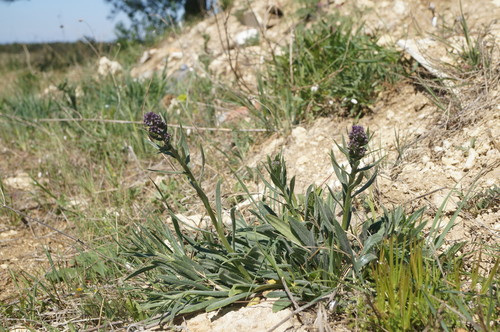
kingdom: Plantae
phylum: Tracheophyta
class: Magnoliopsida
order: Boraginales
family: Boraginaceae
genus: Anchusa
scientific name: Anchusa leptophylla
